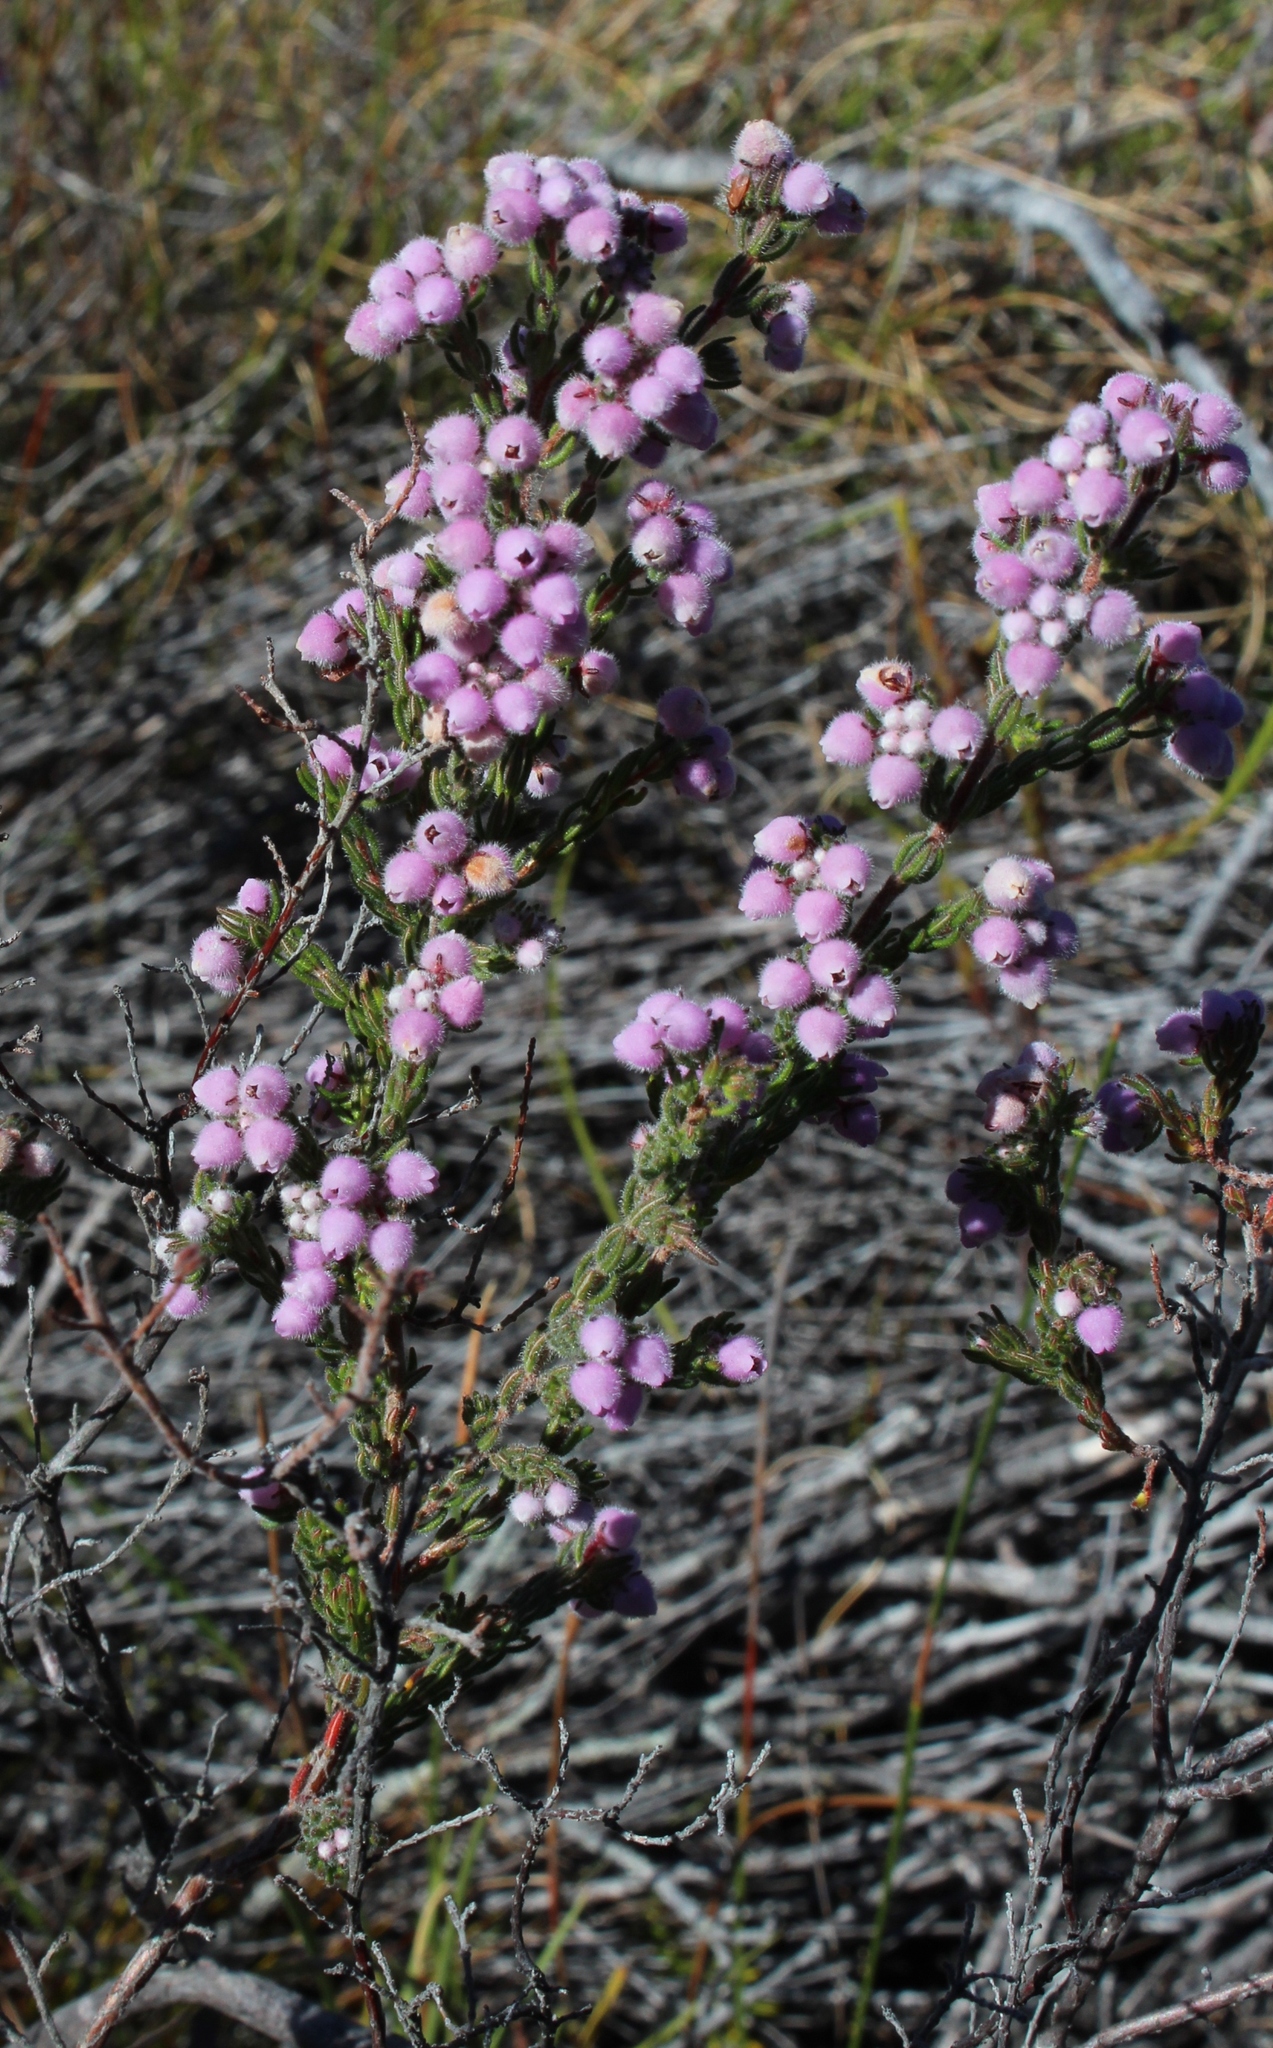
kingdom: Plantae
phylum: Tracheophyta
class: Magnoliopsida
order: Ericales
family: Ericaceae
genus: Erica
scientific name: Erica hirtiflora
